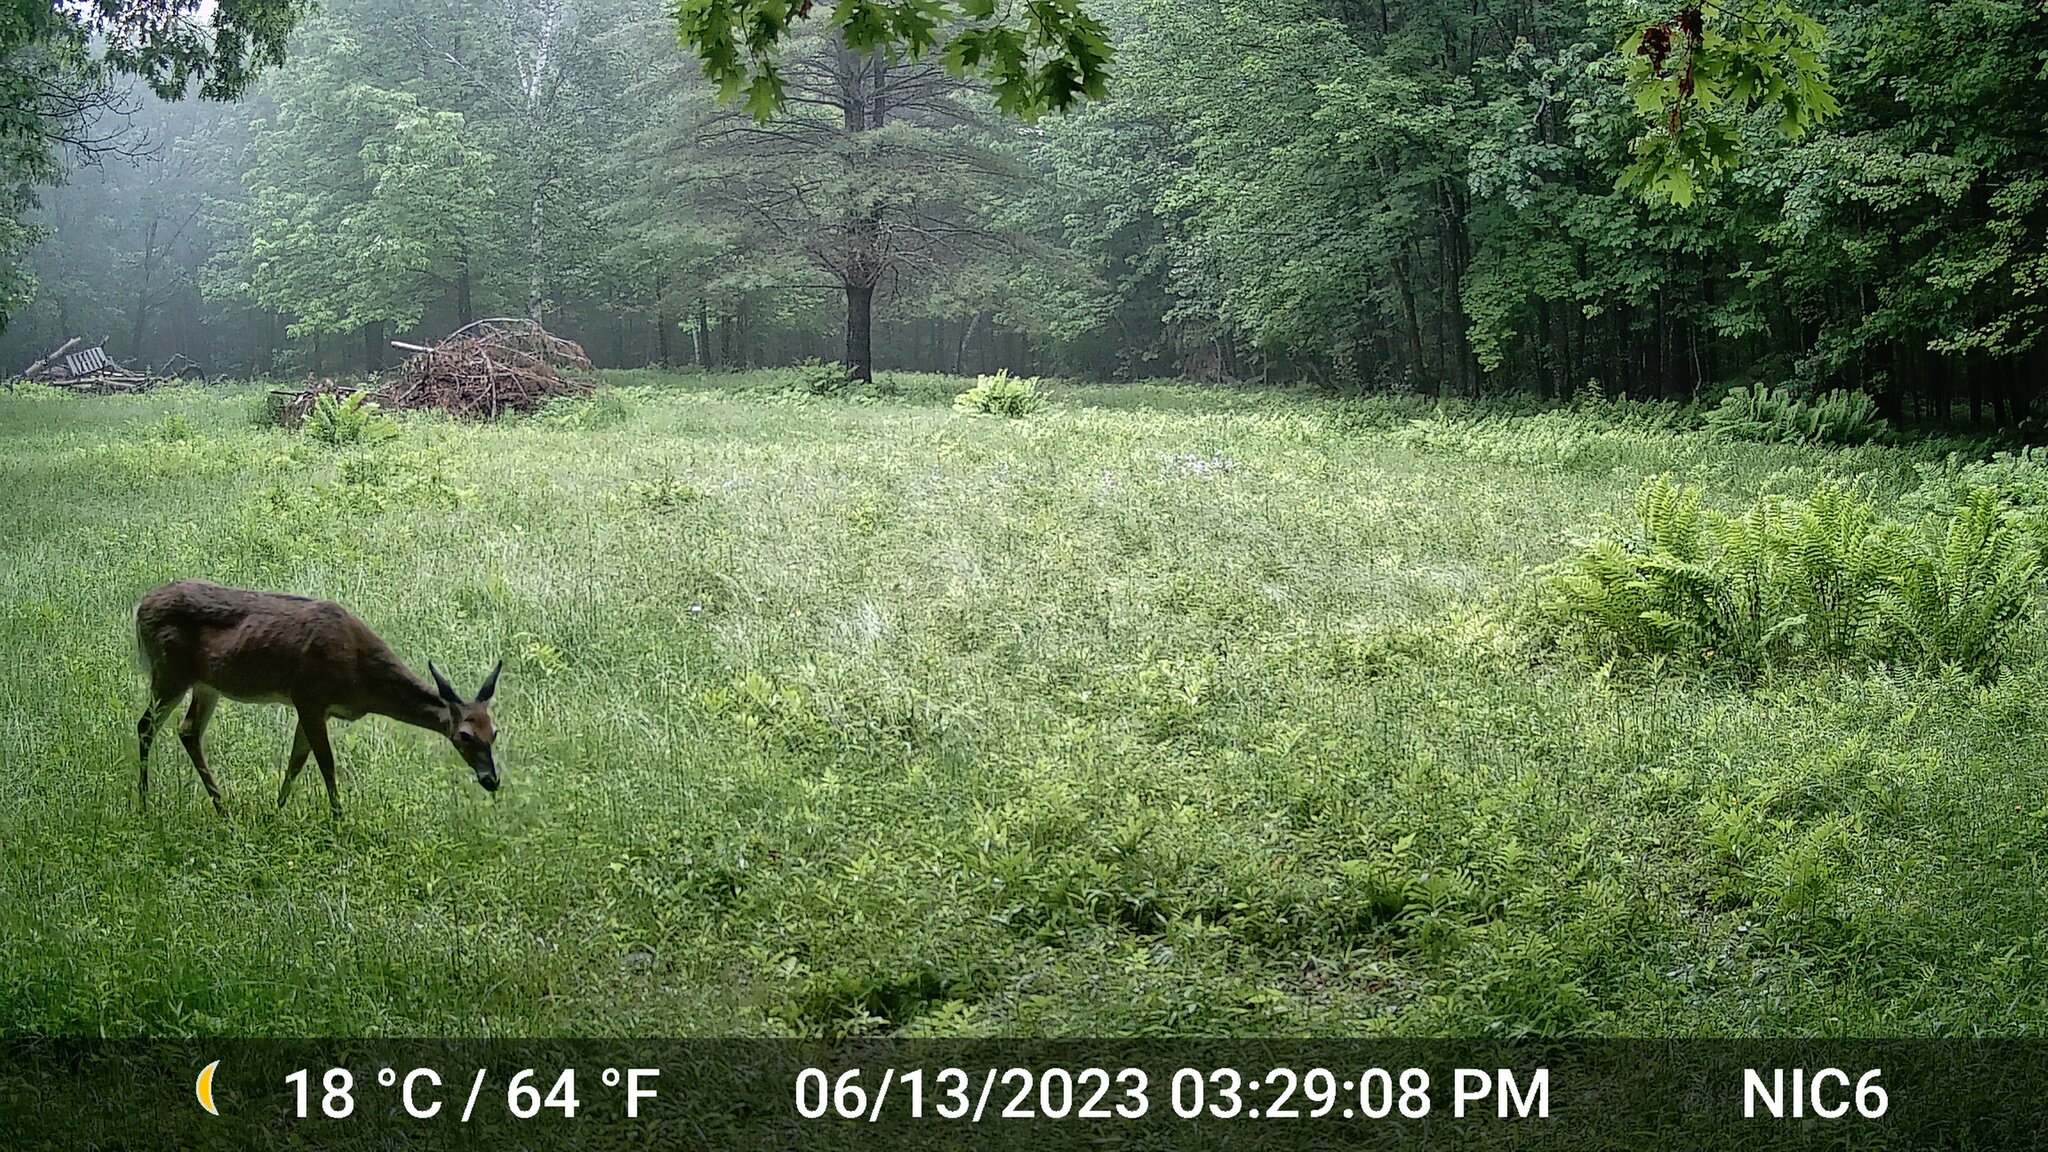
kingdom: Animalia
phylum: Chordata
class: Mammalia
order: Artiodactyla
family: Cervidae
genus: Odocoileus
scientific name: Odocoileus virginianus
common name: White-tailed deer
